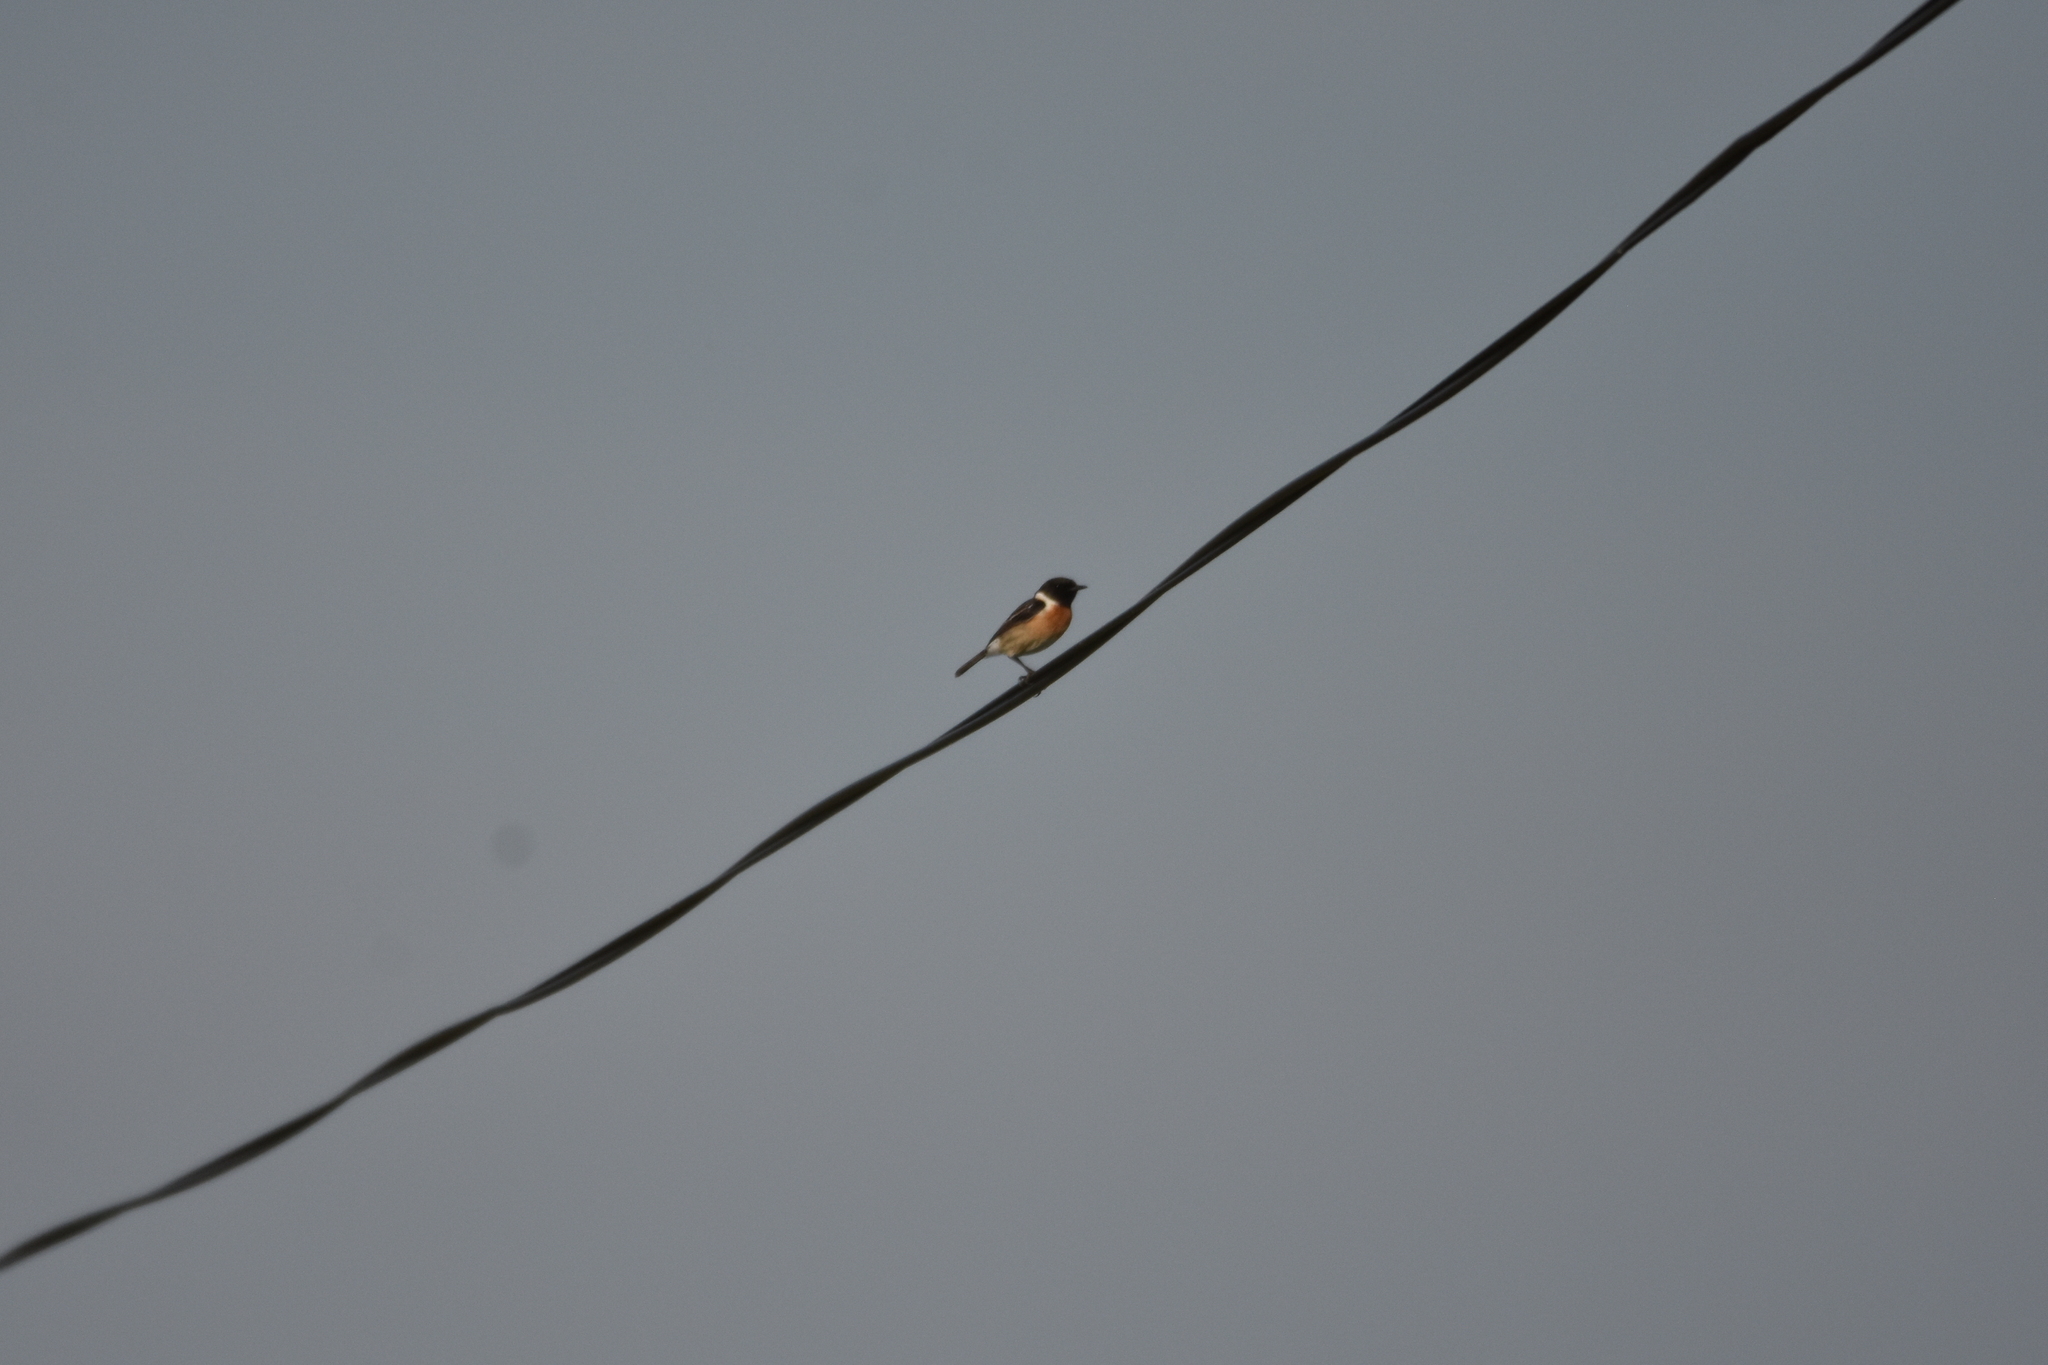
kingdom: Animalia
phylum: Chordata
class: Aves
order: Passeriformes
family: Muscicapidae
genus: Saxicola
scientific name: Saxicola rubicola
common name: European stonechat
